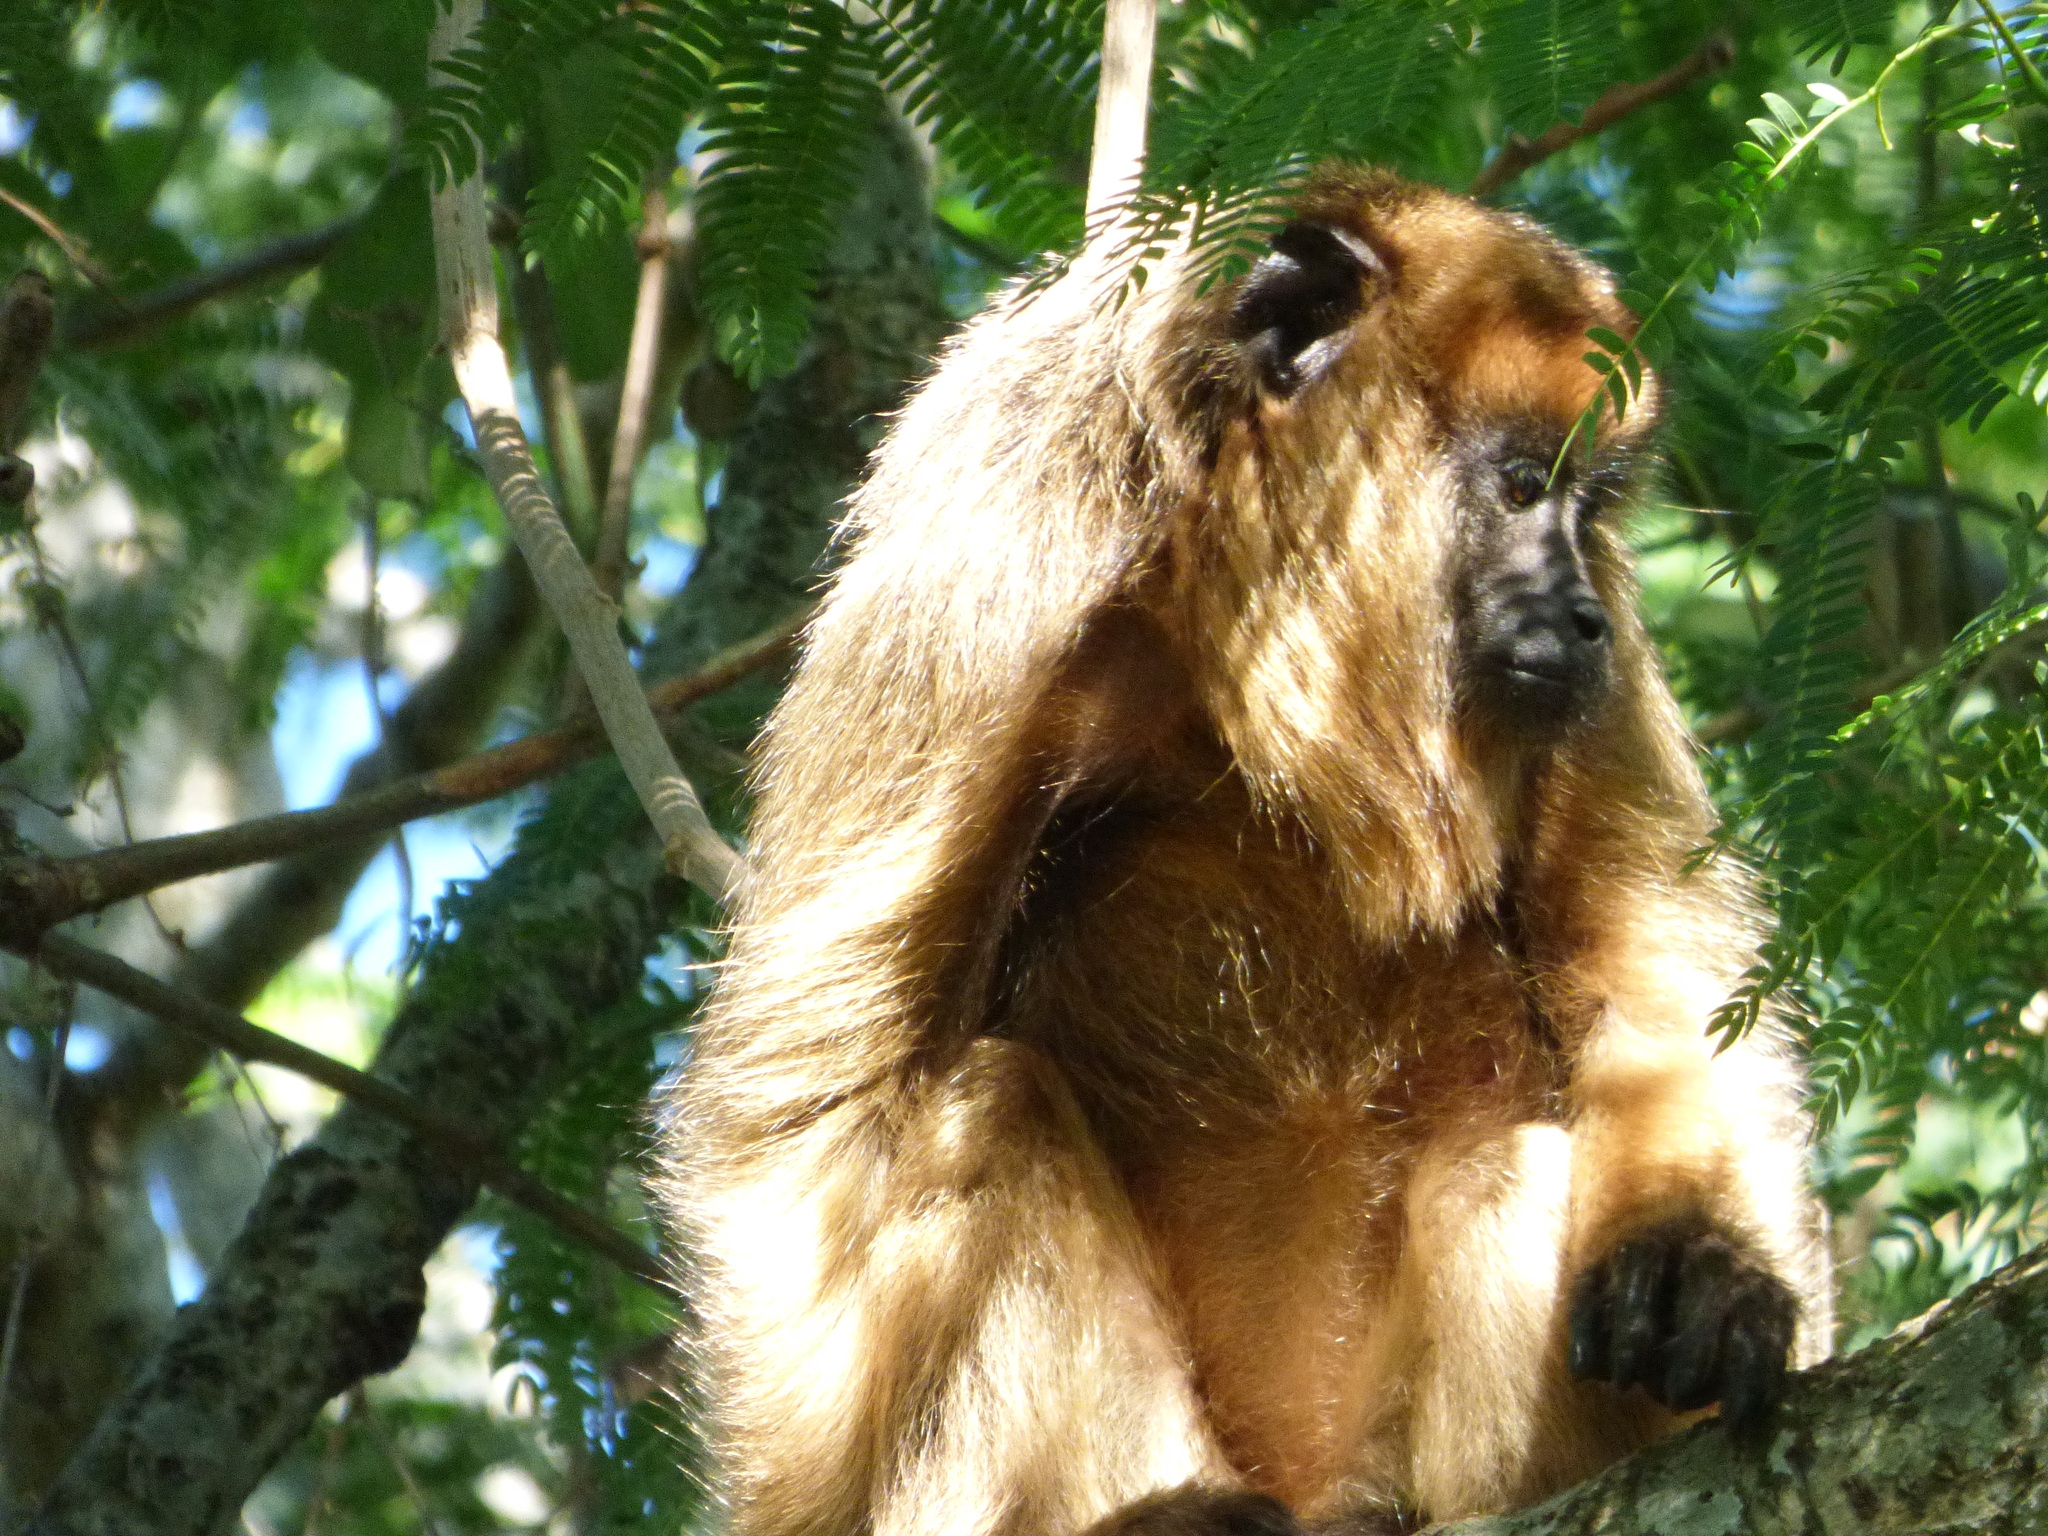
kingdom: Animalia
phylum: Chordata
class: Mammalia
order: Primates
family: Atelidae
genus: Alouatta
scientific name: Alouatta caraya
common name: Black howler
